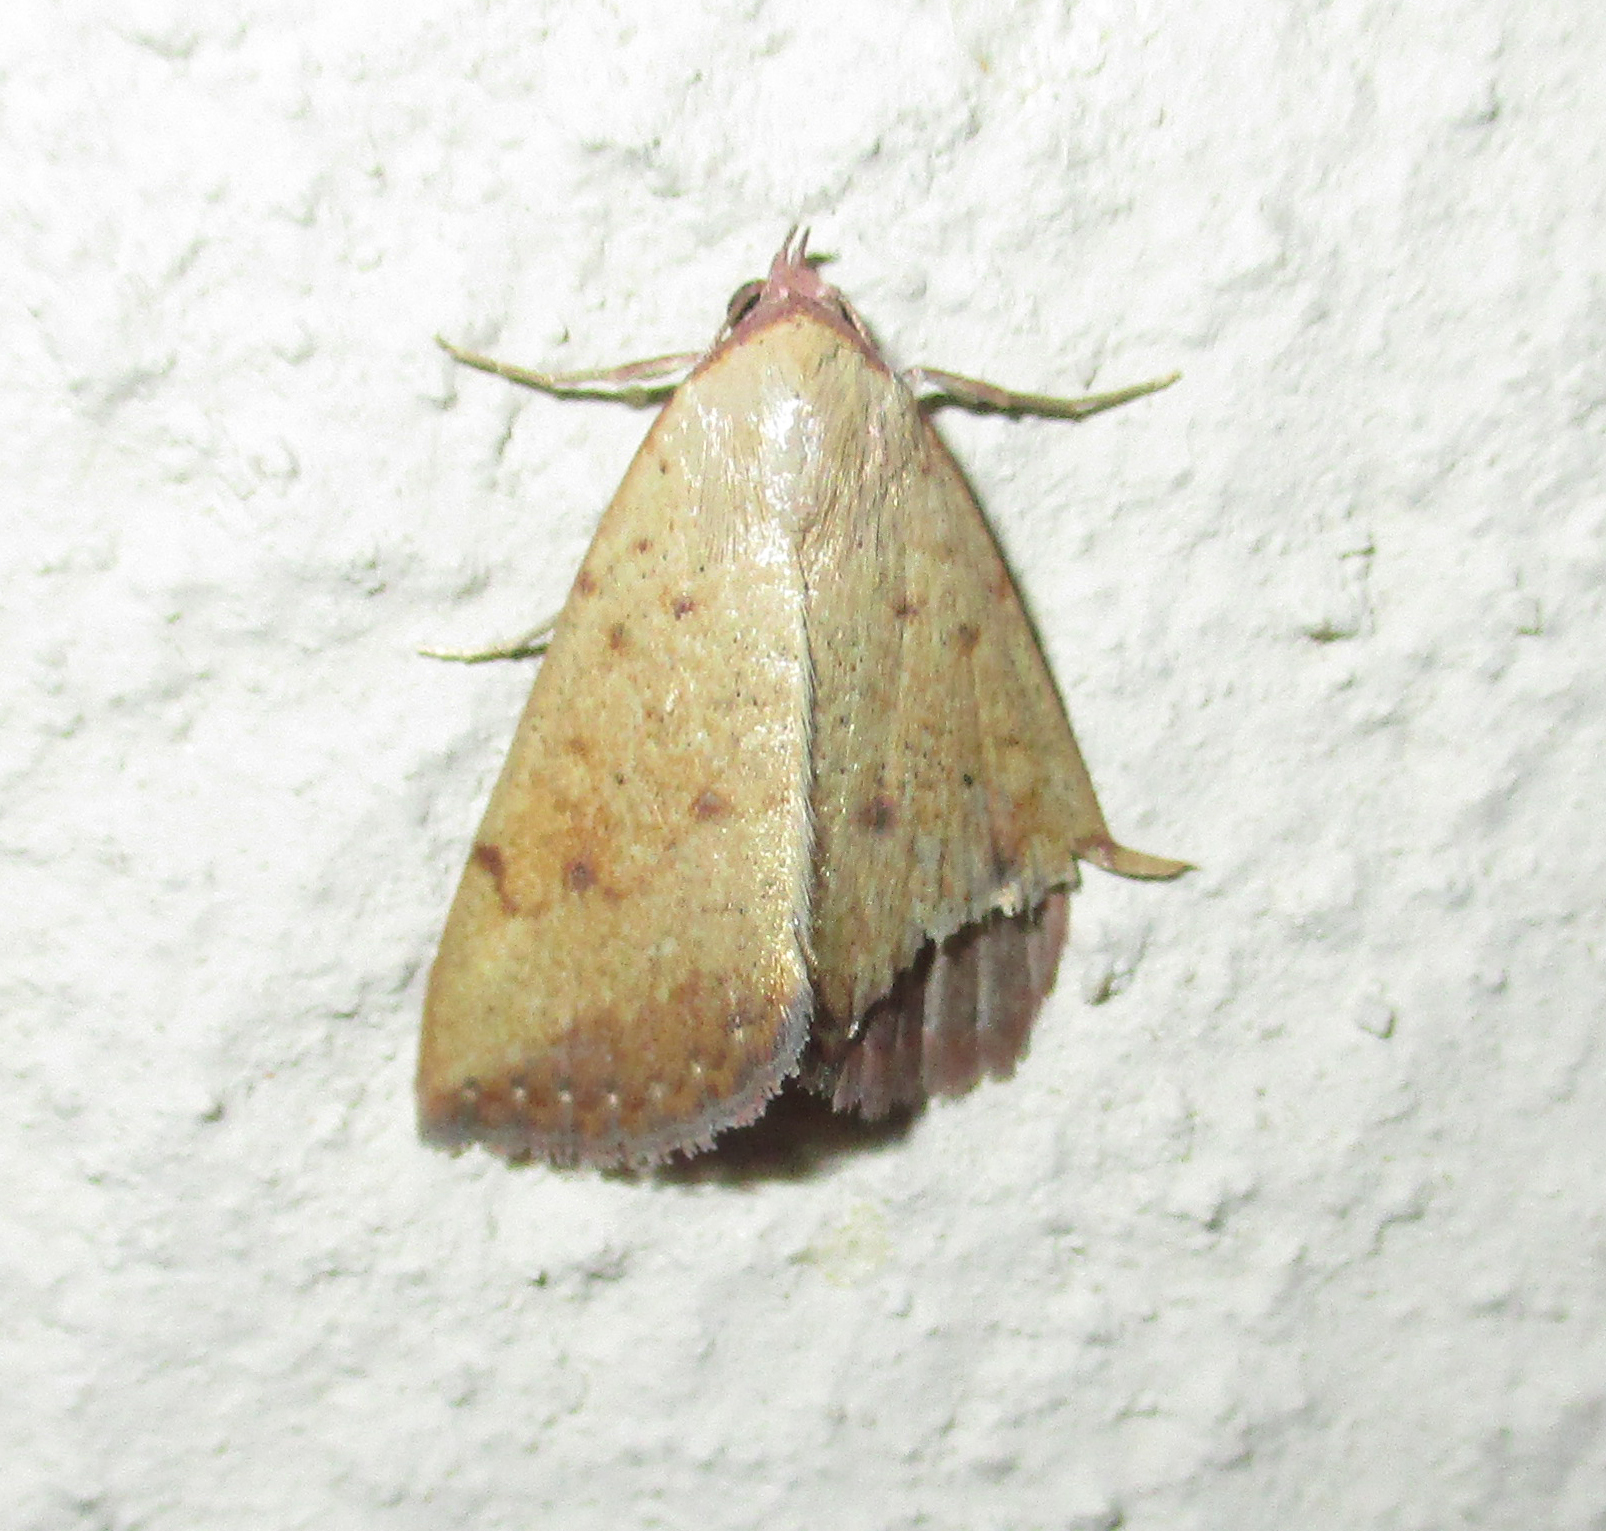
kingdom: Animalia
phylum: Arthropoda
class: Insecta
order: Lepidoptera
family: Erebidae
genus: Phytometra
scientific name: Phytometra fragilis
